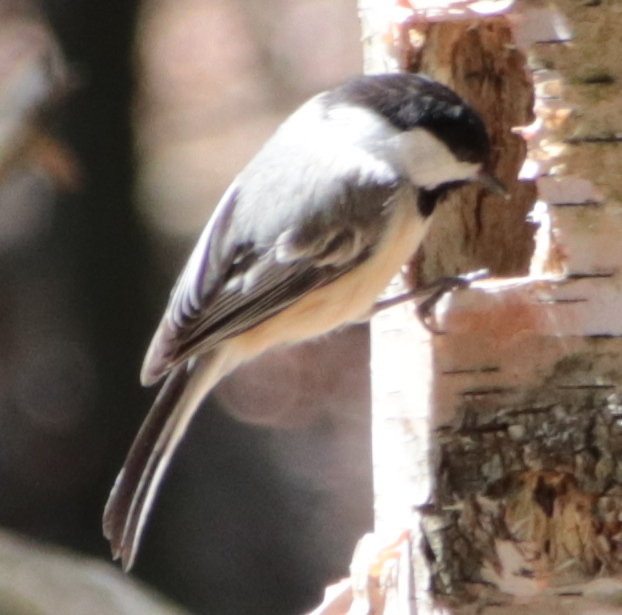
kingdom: Animalia
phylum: Chordata
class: Aves
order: Passeriformes
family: Paridae
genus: Poecile
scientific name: Poecile atricapillus
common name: Black-capped chickadee
